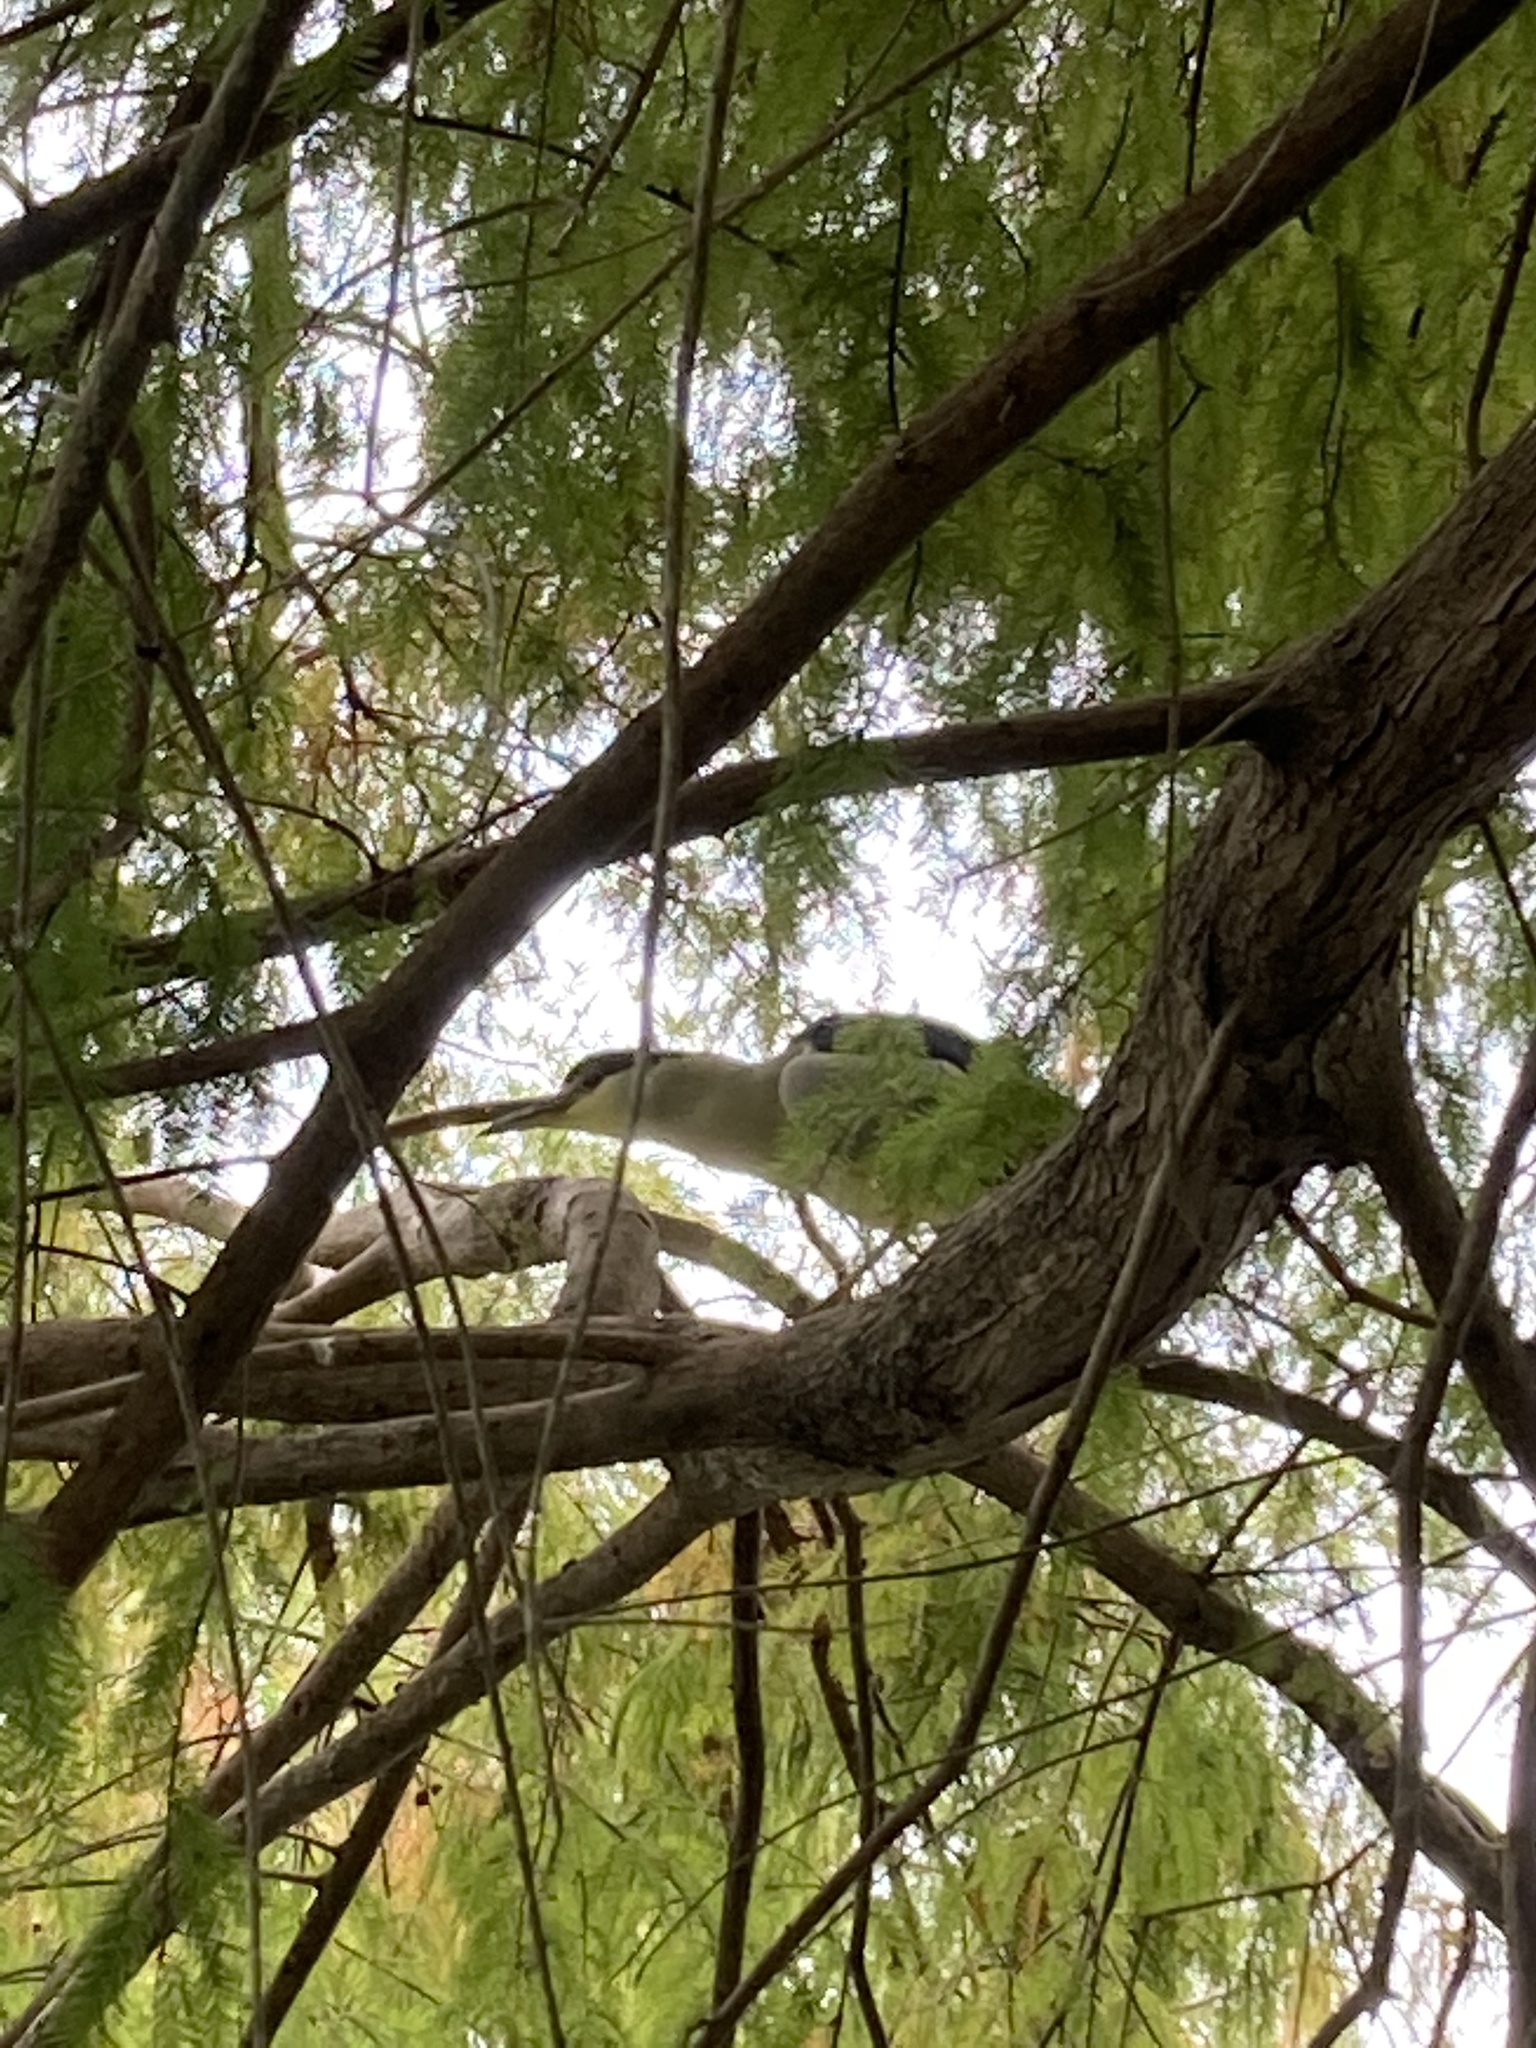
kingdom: Animalia
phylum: Chordata
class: Aves
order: Pelecaniformes
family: Ardeidae
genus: Nycticorax
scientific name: Nycticorax nycticorax
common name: Black-crowned night heron
